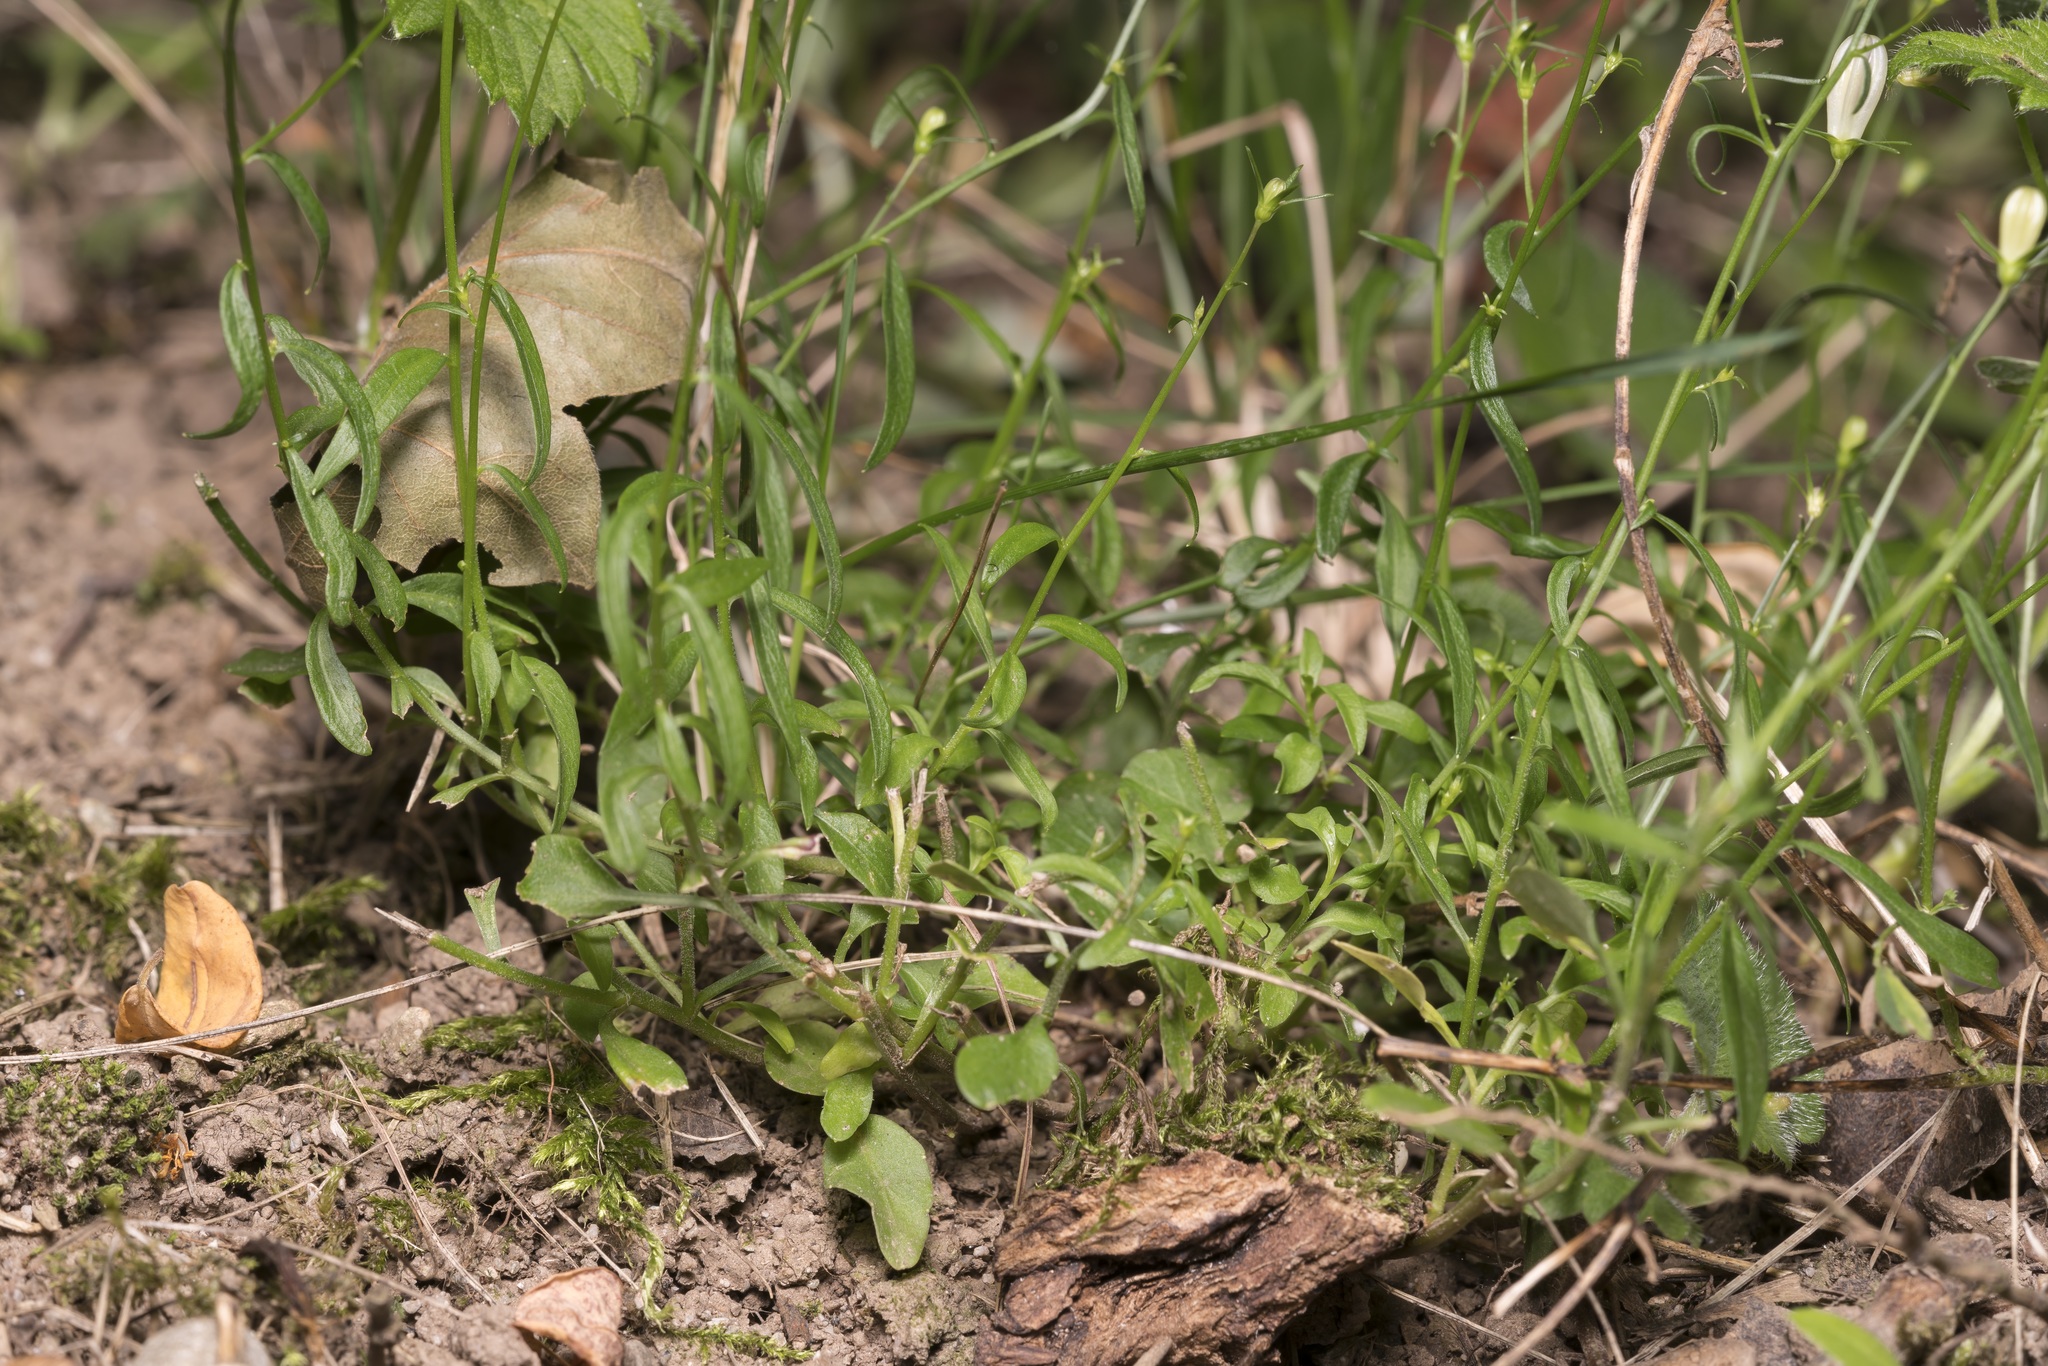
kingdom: Plantae
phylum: Tracheophyta
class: Magnoliopsida
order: Asterales
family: Campanulaceae
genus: Campanula
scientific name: Campanula rotundifolia
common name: Harebell
